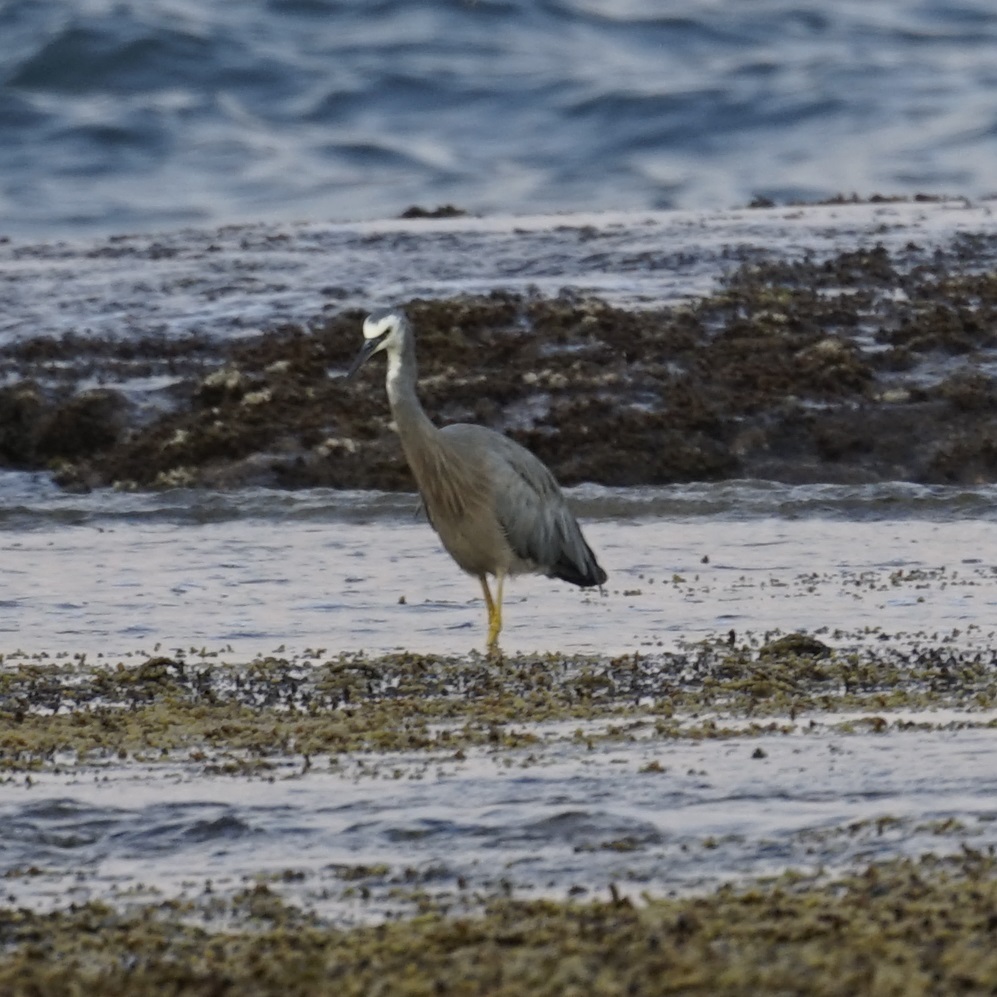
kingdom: Animalia
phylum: Chordata
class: Aves
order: Pelecaniformes
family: Ardeidae
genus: Egretta
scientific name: Egretta novaehollandiae
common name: White-faced heron
